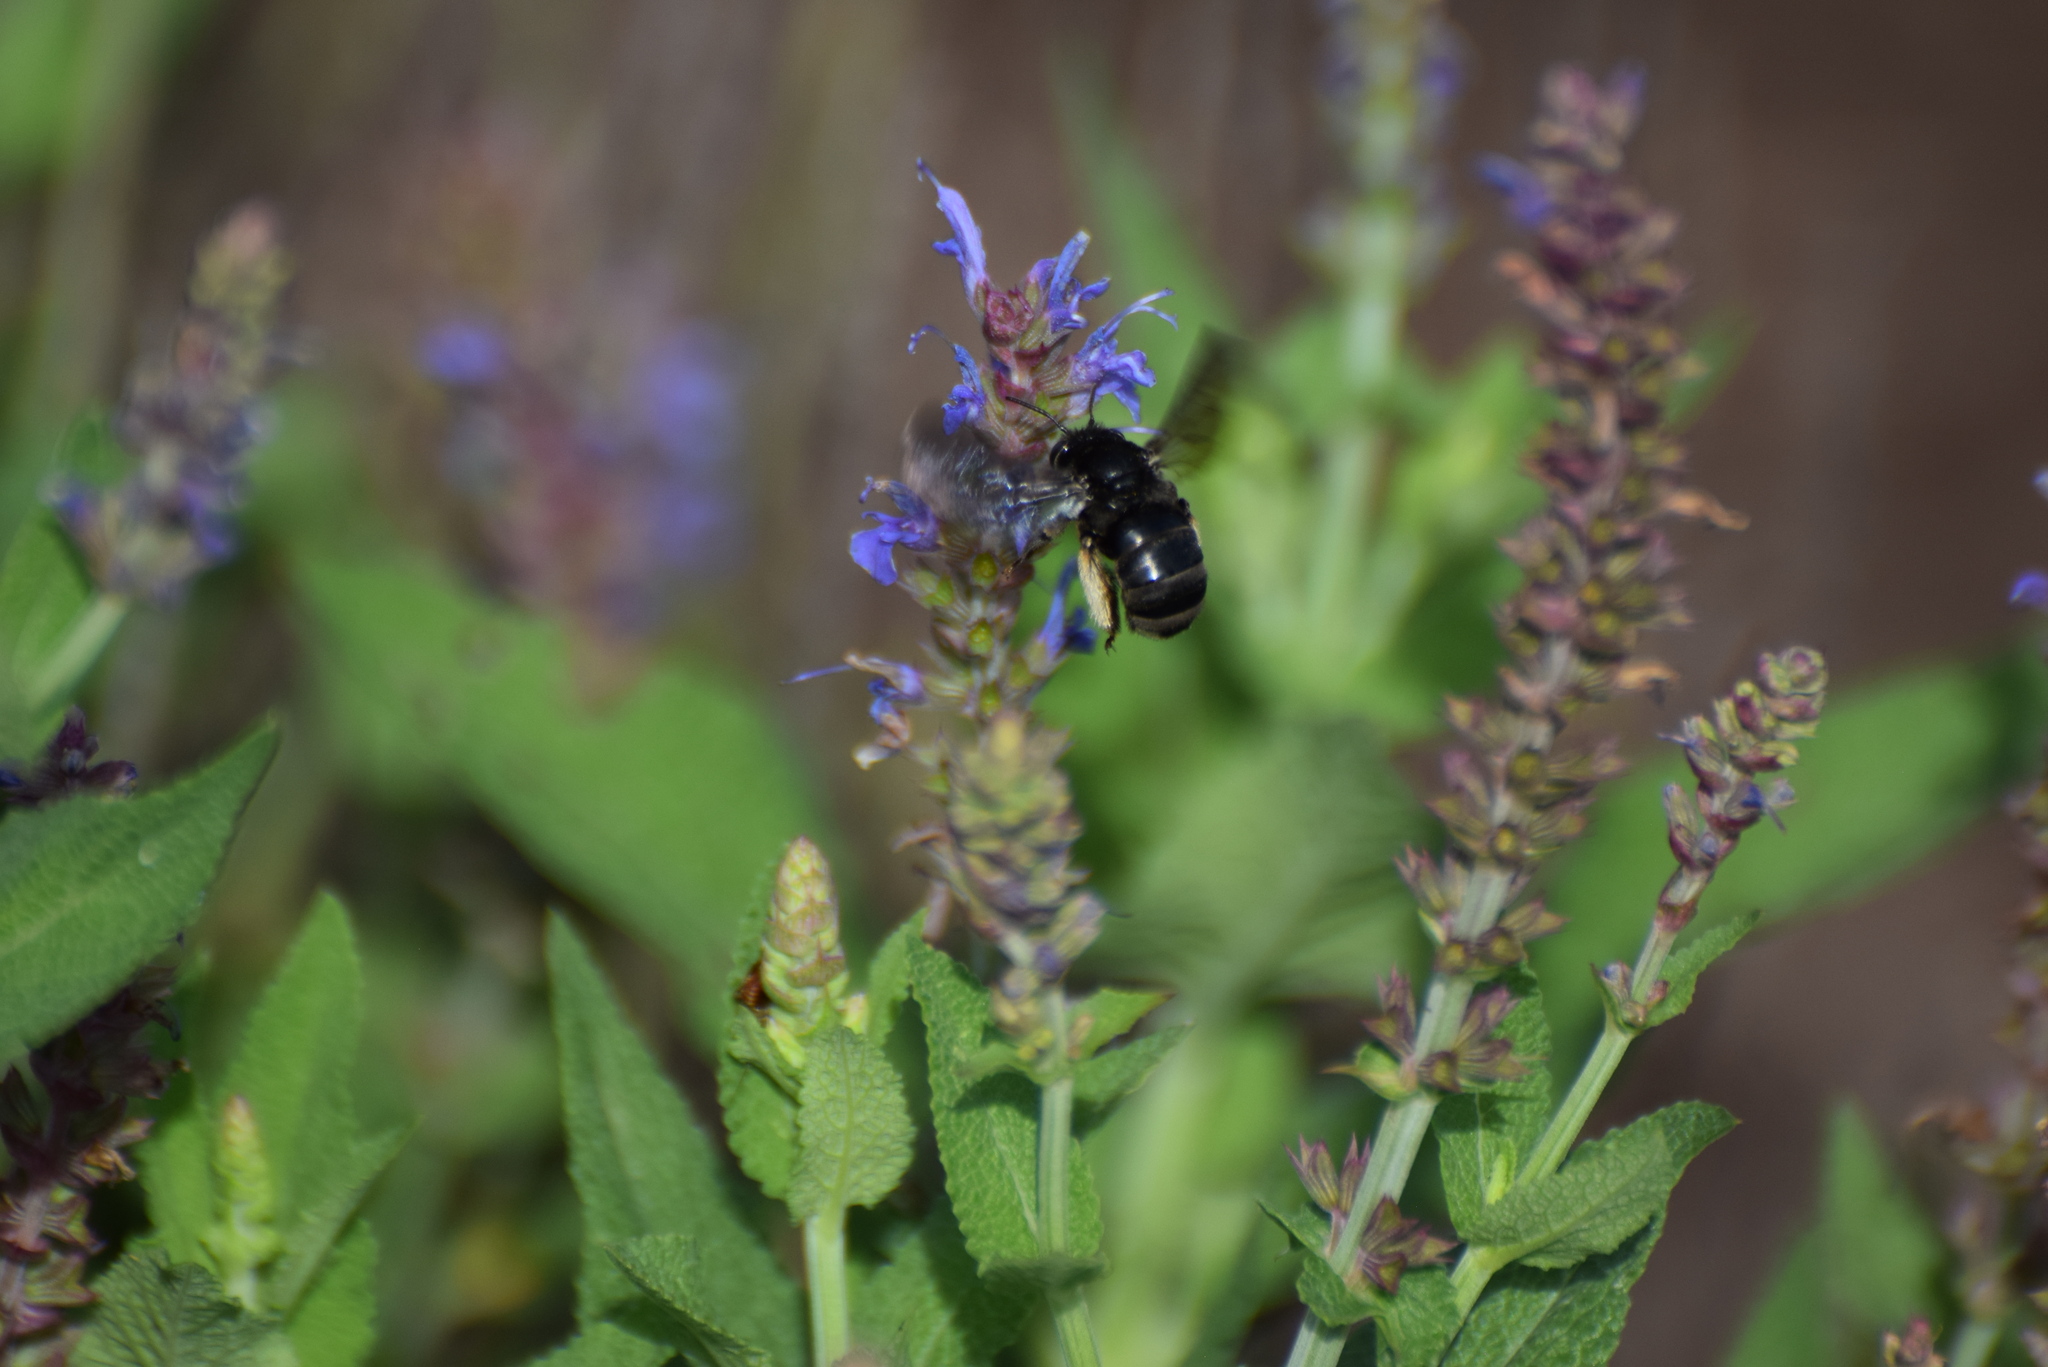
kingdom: Animalia
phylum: Arthropoda
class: Insecta
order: Hymenoptera
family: Apidae
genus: Melissodes
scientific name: Melissodes bimaculatus
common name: Two-spotted long-horned bee
